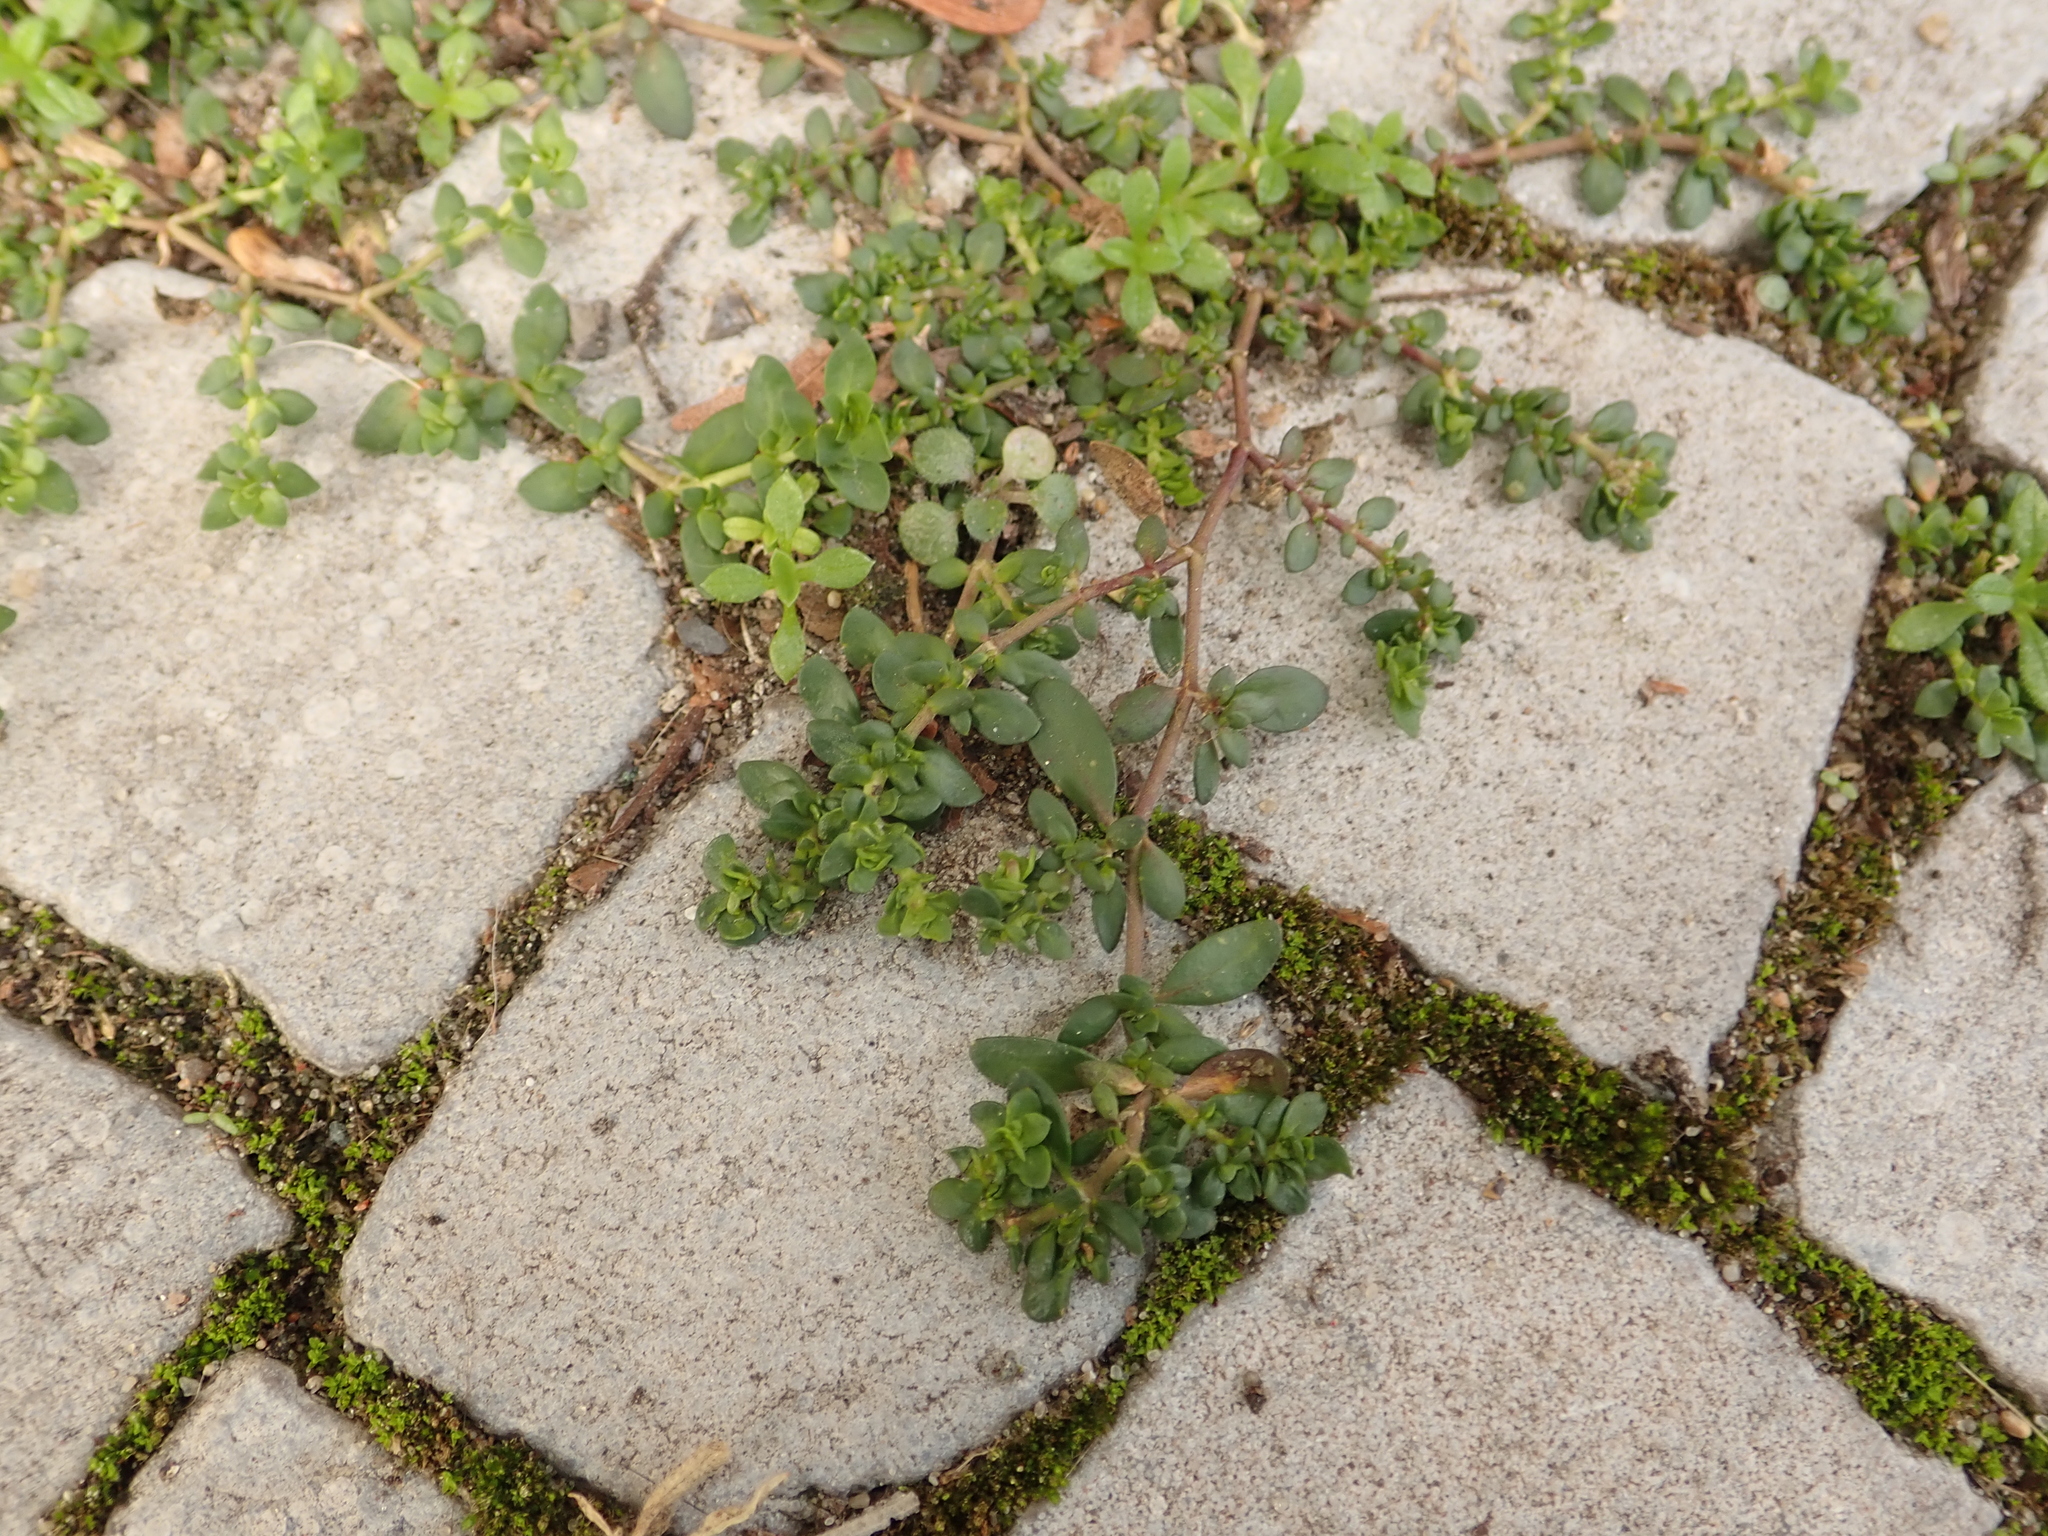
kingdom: Plantae
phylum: Tracheophyta
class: Magnoliopsida
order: Caryophyllales
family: Portulacaceae
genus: Portulaca
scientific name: Portulaca oleracea
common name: Common purslane
